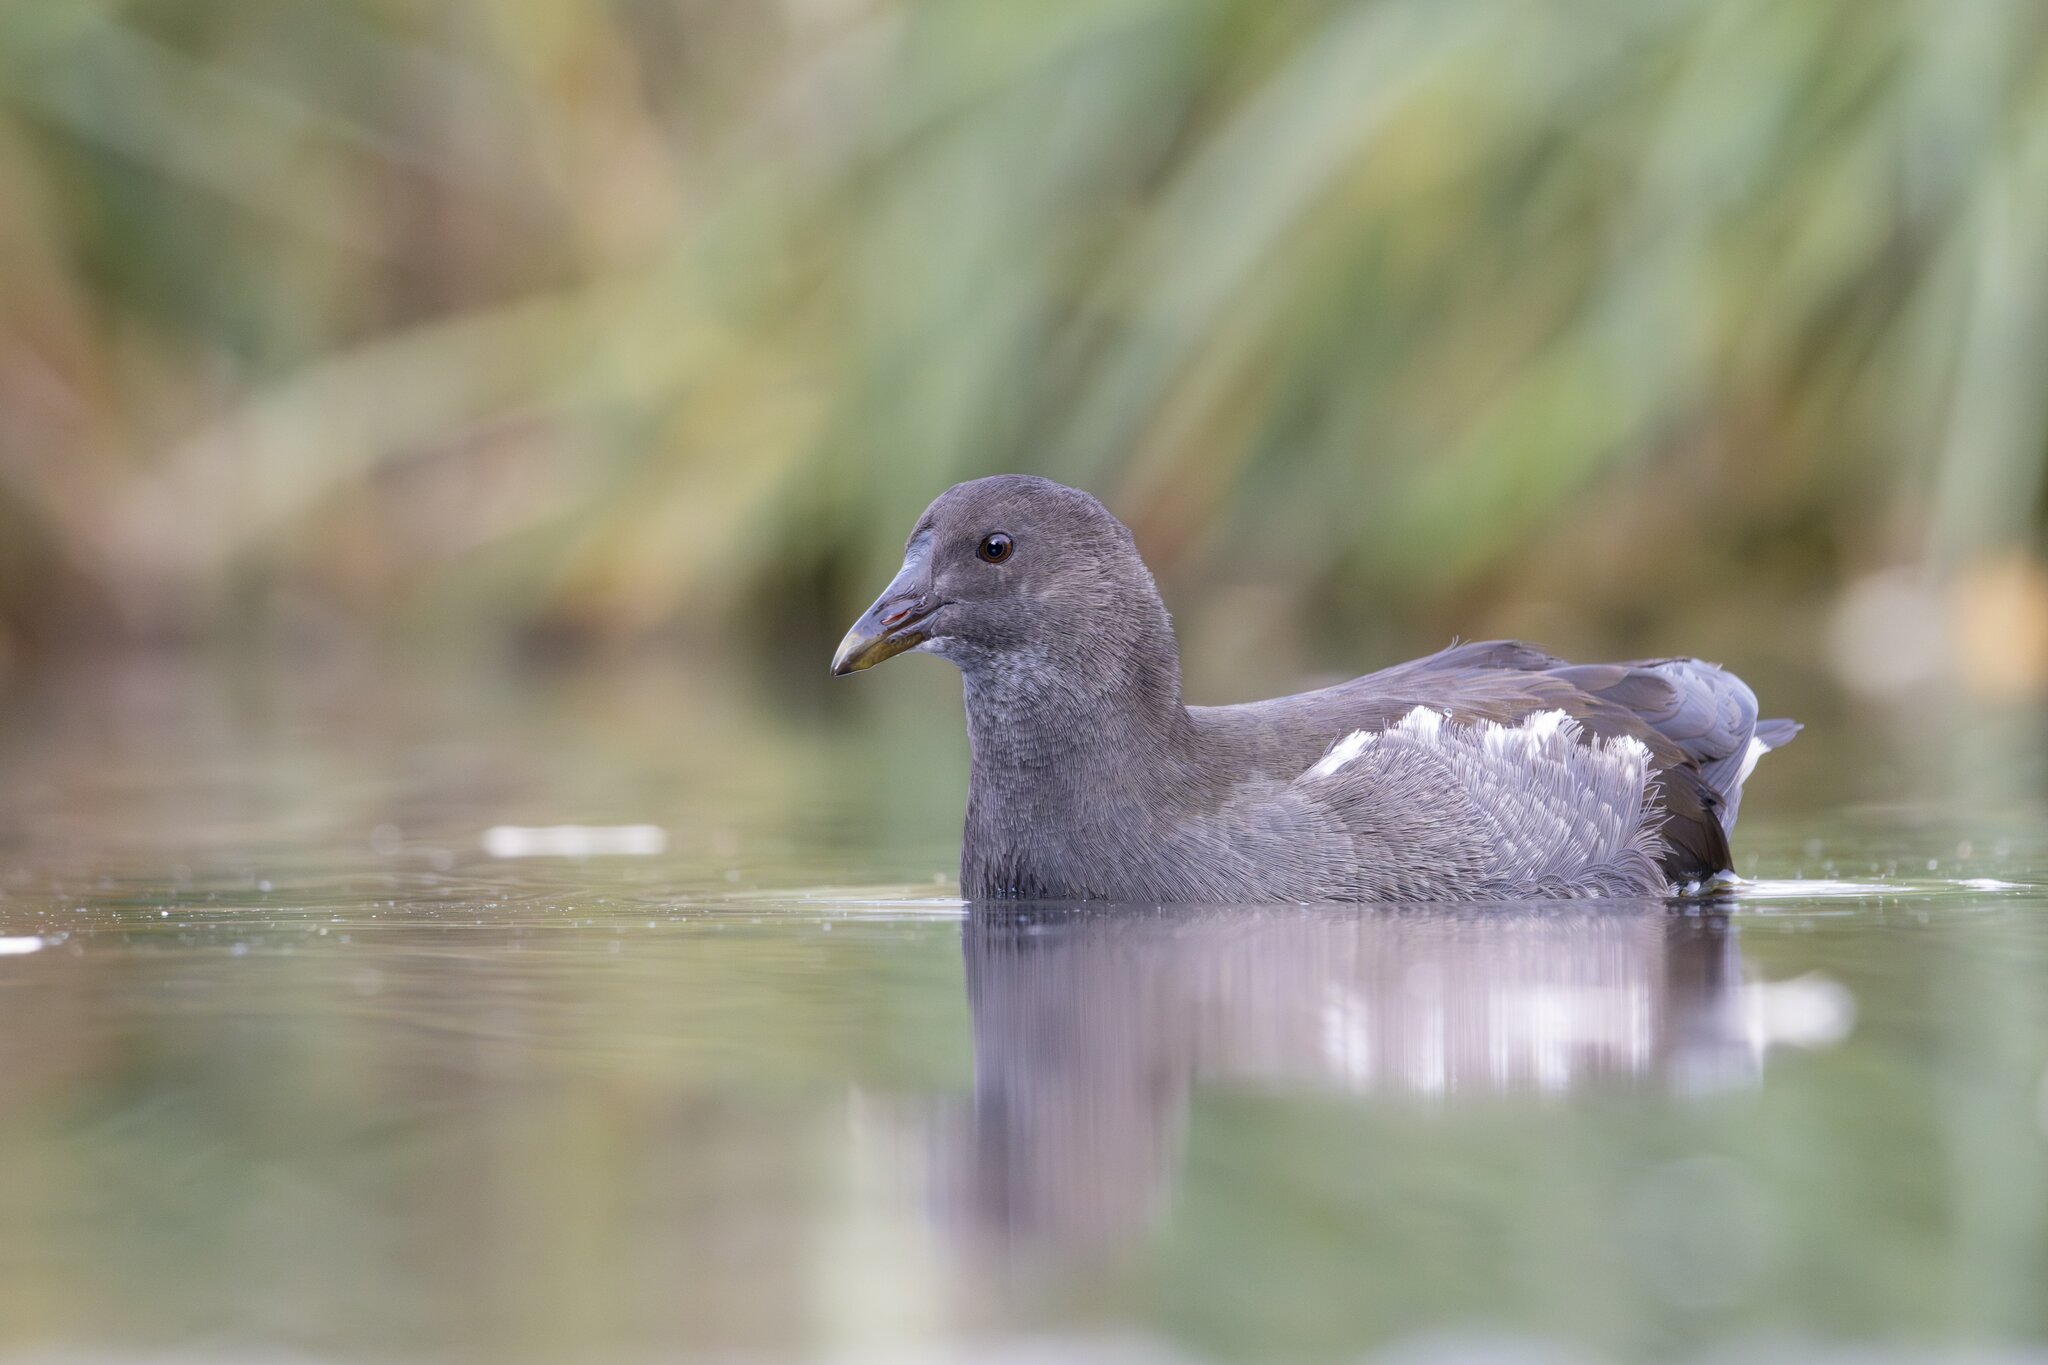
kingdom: Animalia
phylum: Chordata
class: Aves
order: Gruiformes
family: Rallidae
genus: Gallinula
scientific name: Gallinula chloropus
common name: Common moorhen
